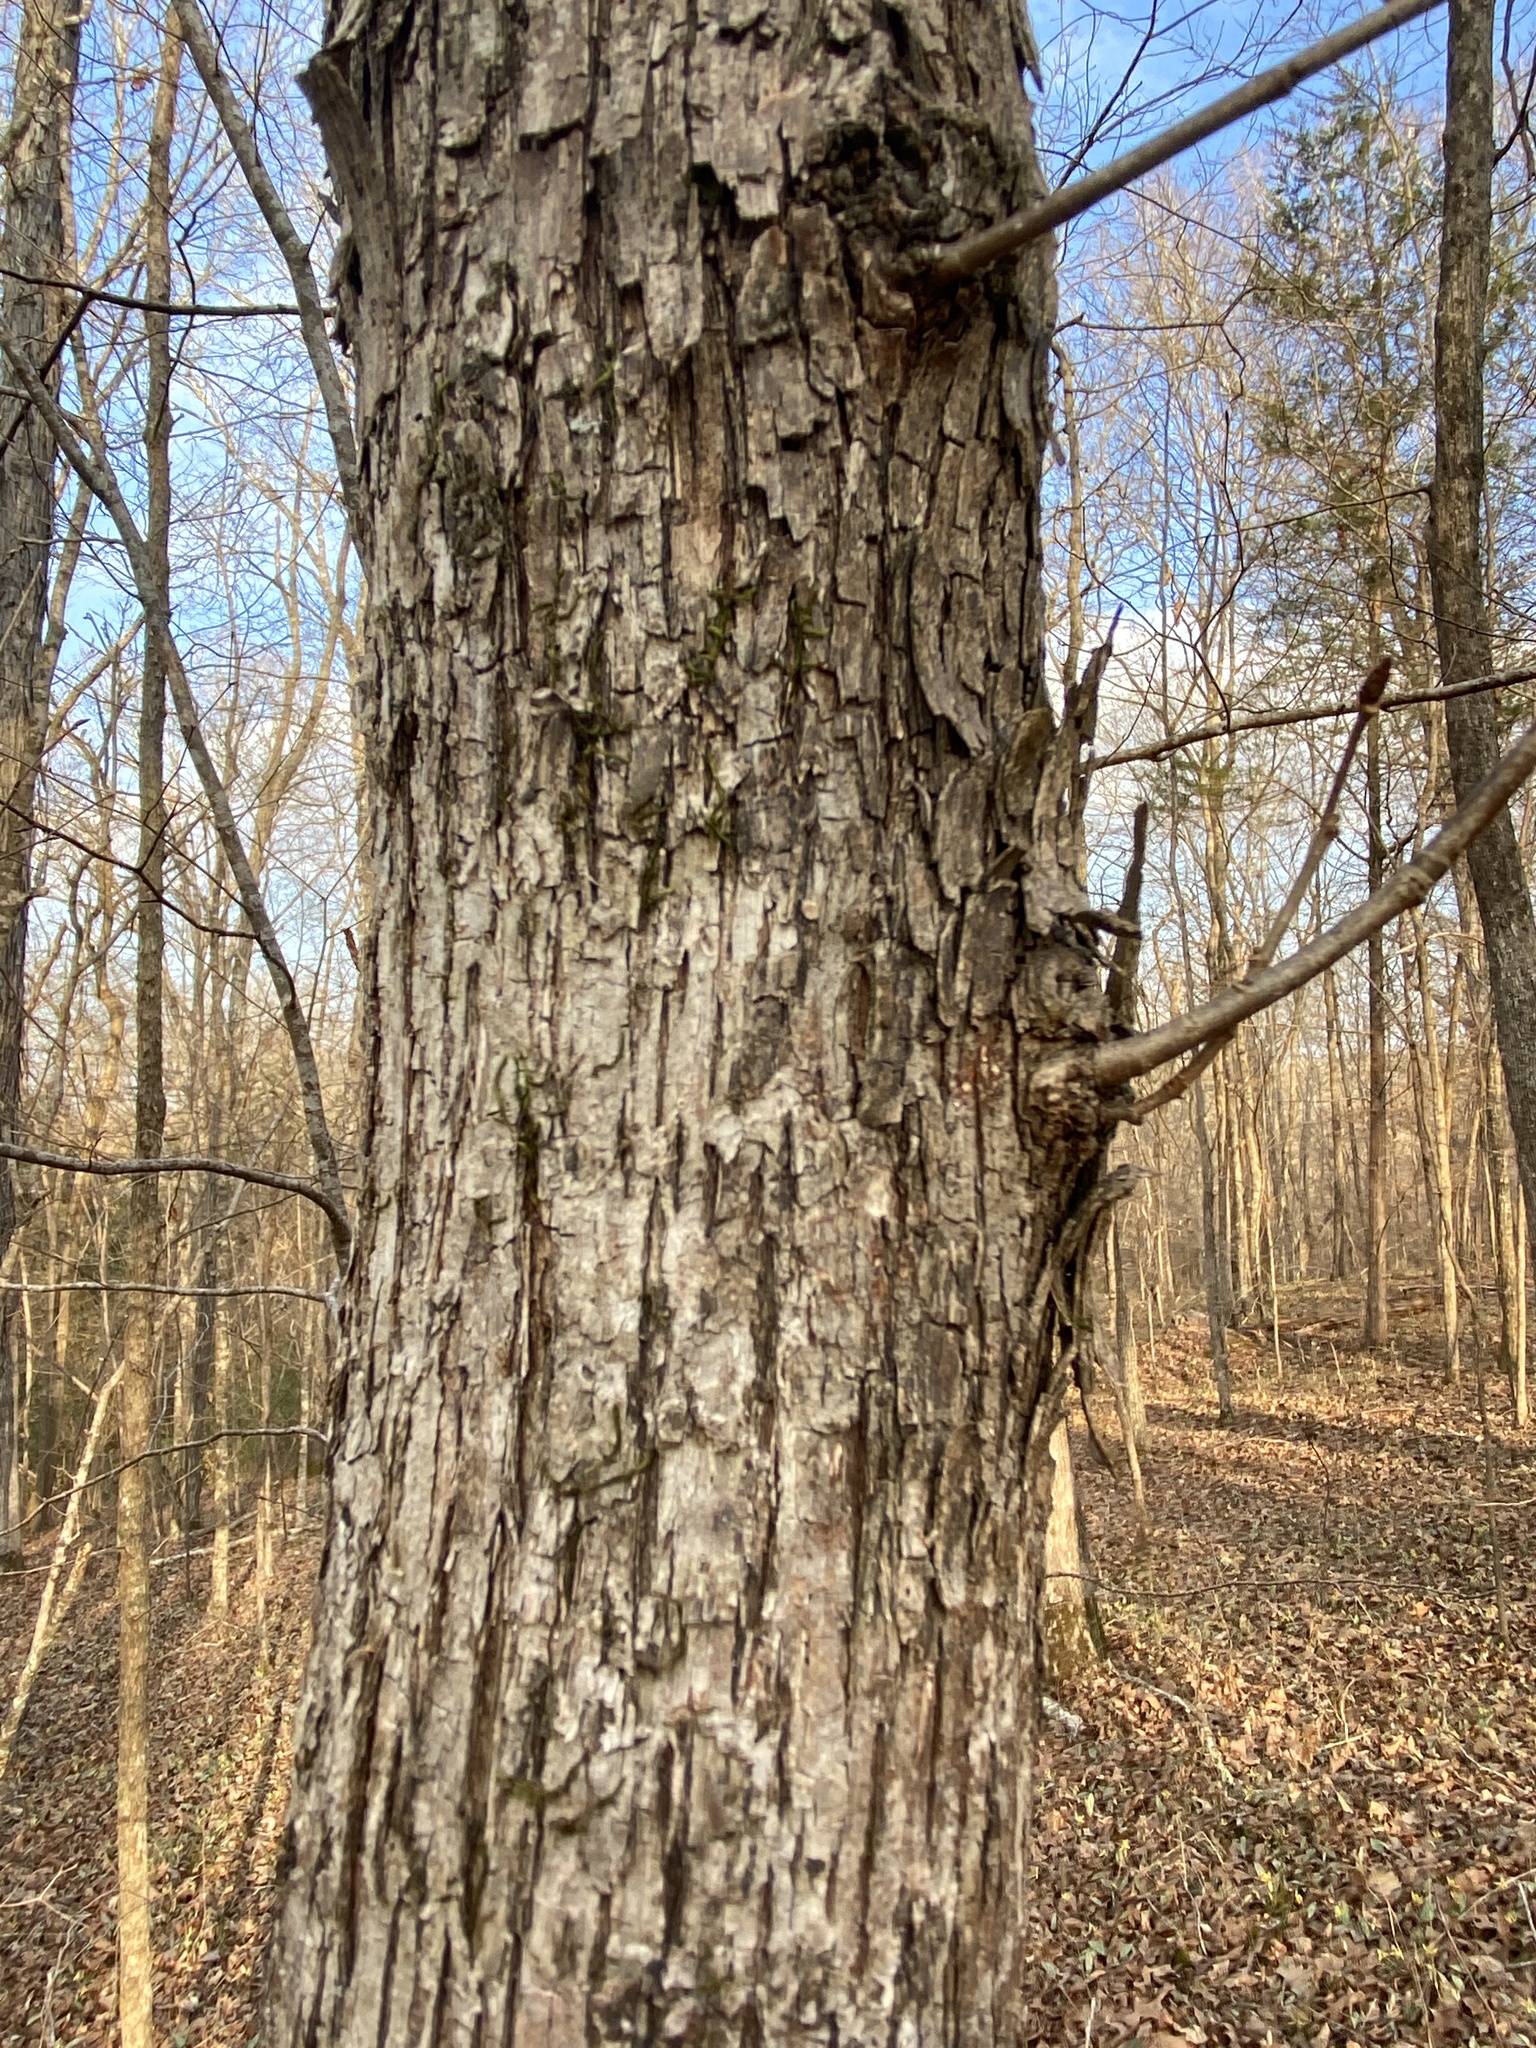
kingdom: Plantae
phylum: Tracheophyta
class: Magnoliopsida
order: Fagales
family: Betulaceae
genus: Ostrya
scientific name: Ostrya virginiana
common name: Ironwood
